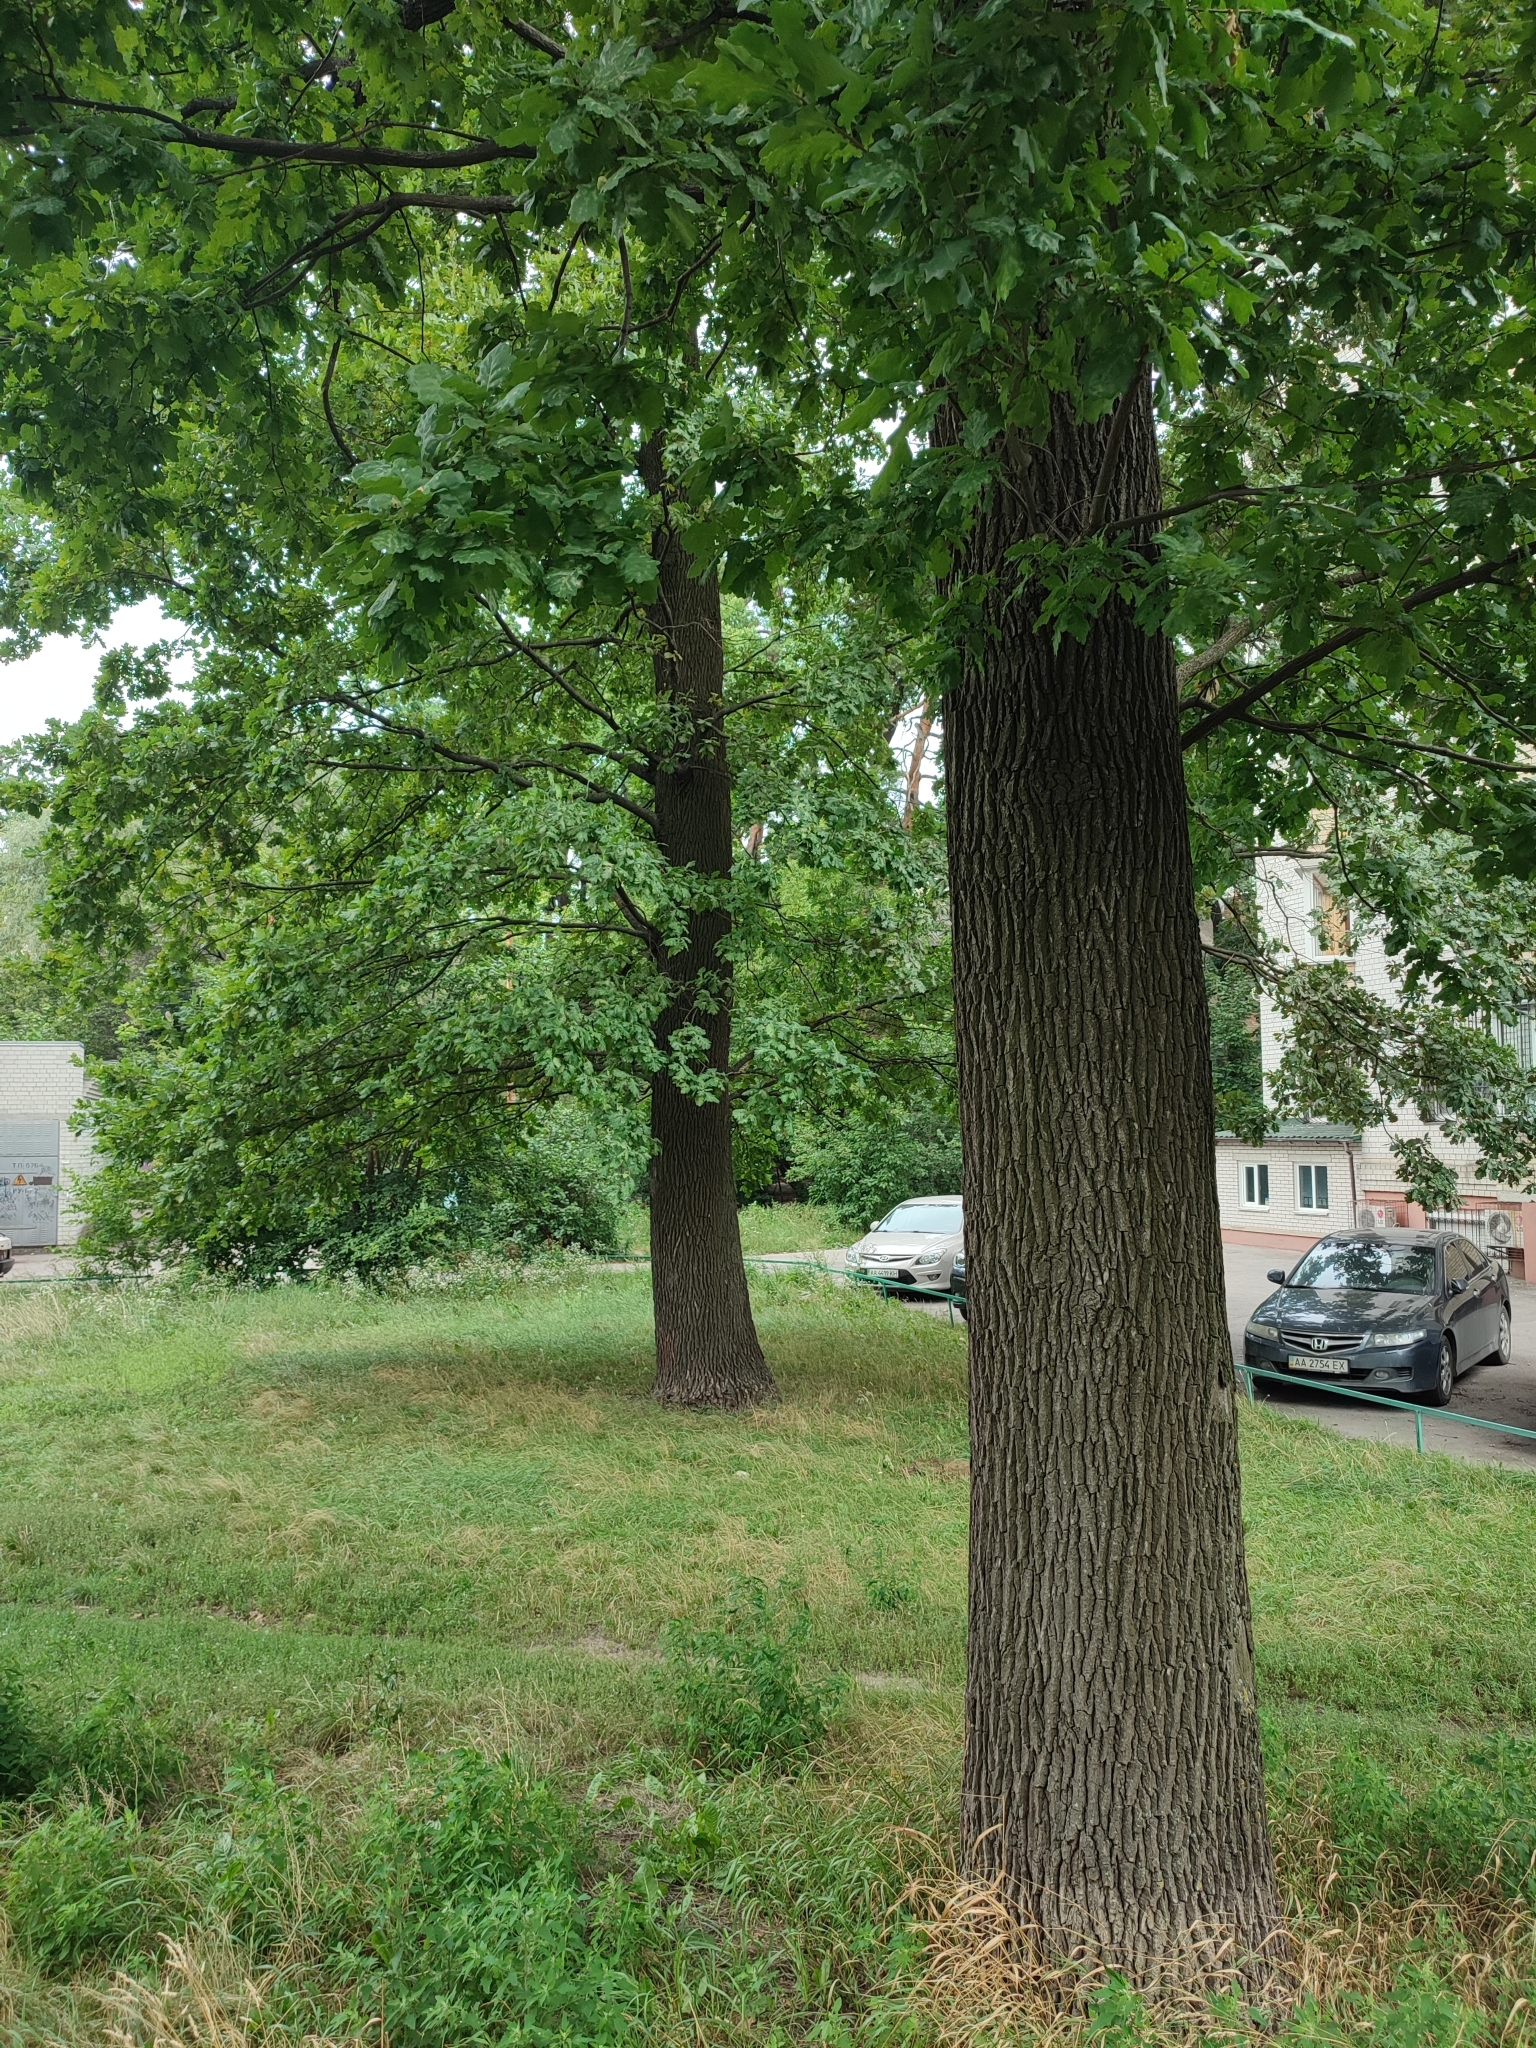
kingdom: Plantae
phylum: Tracheophyta
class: Magnoliopsida
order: Fagales
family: Fagaceae
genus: Quercus
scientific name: Quercus robur
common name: Pedunculate oak
